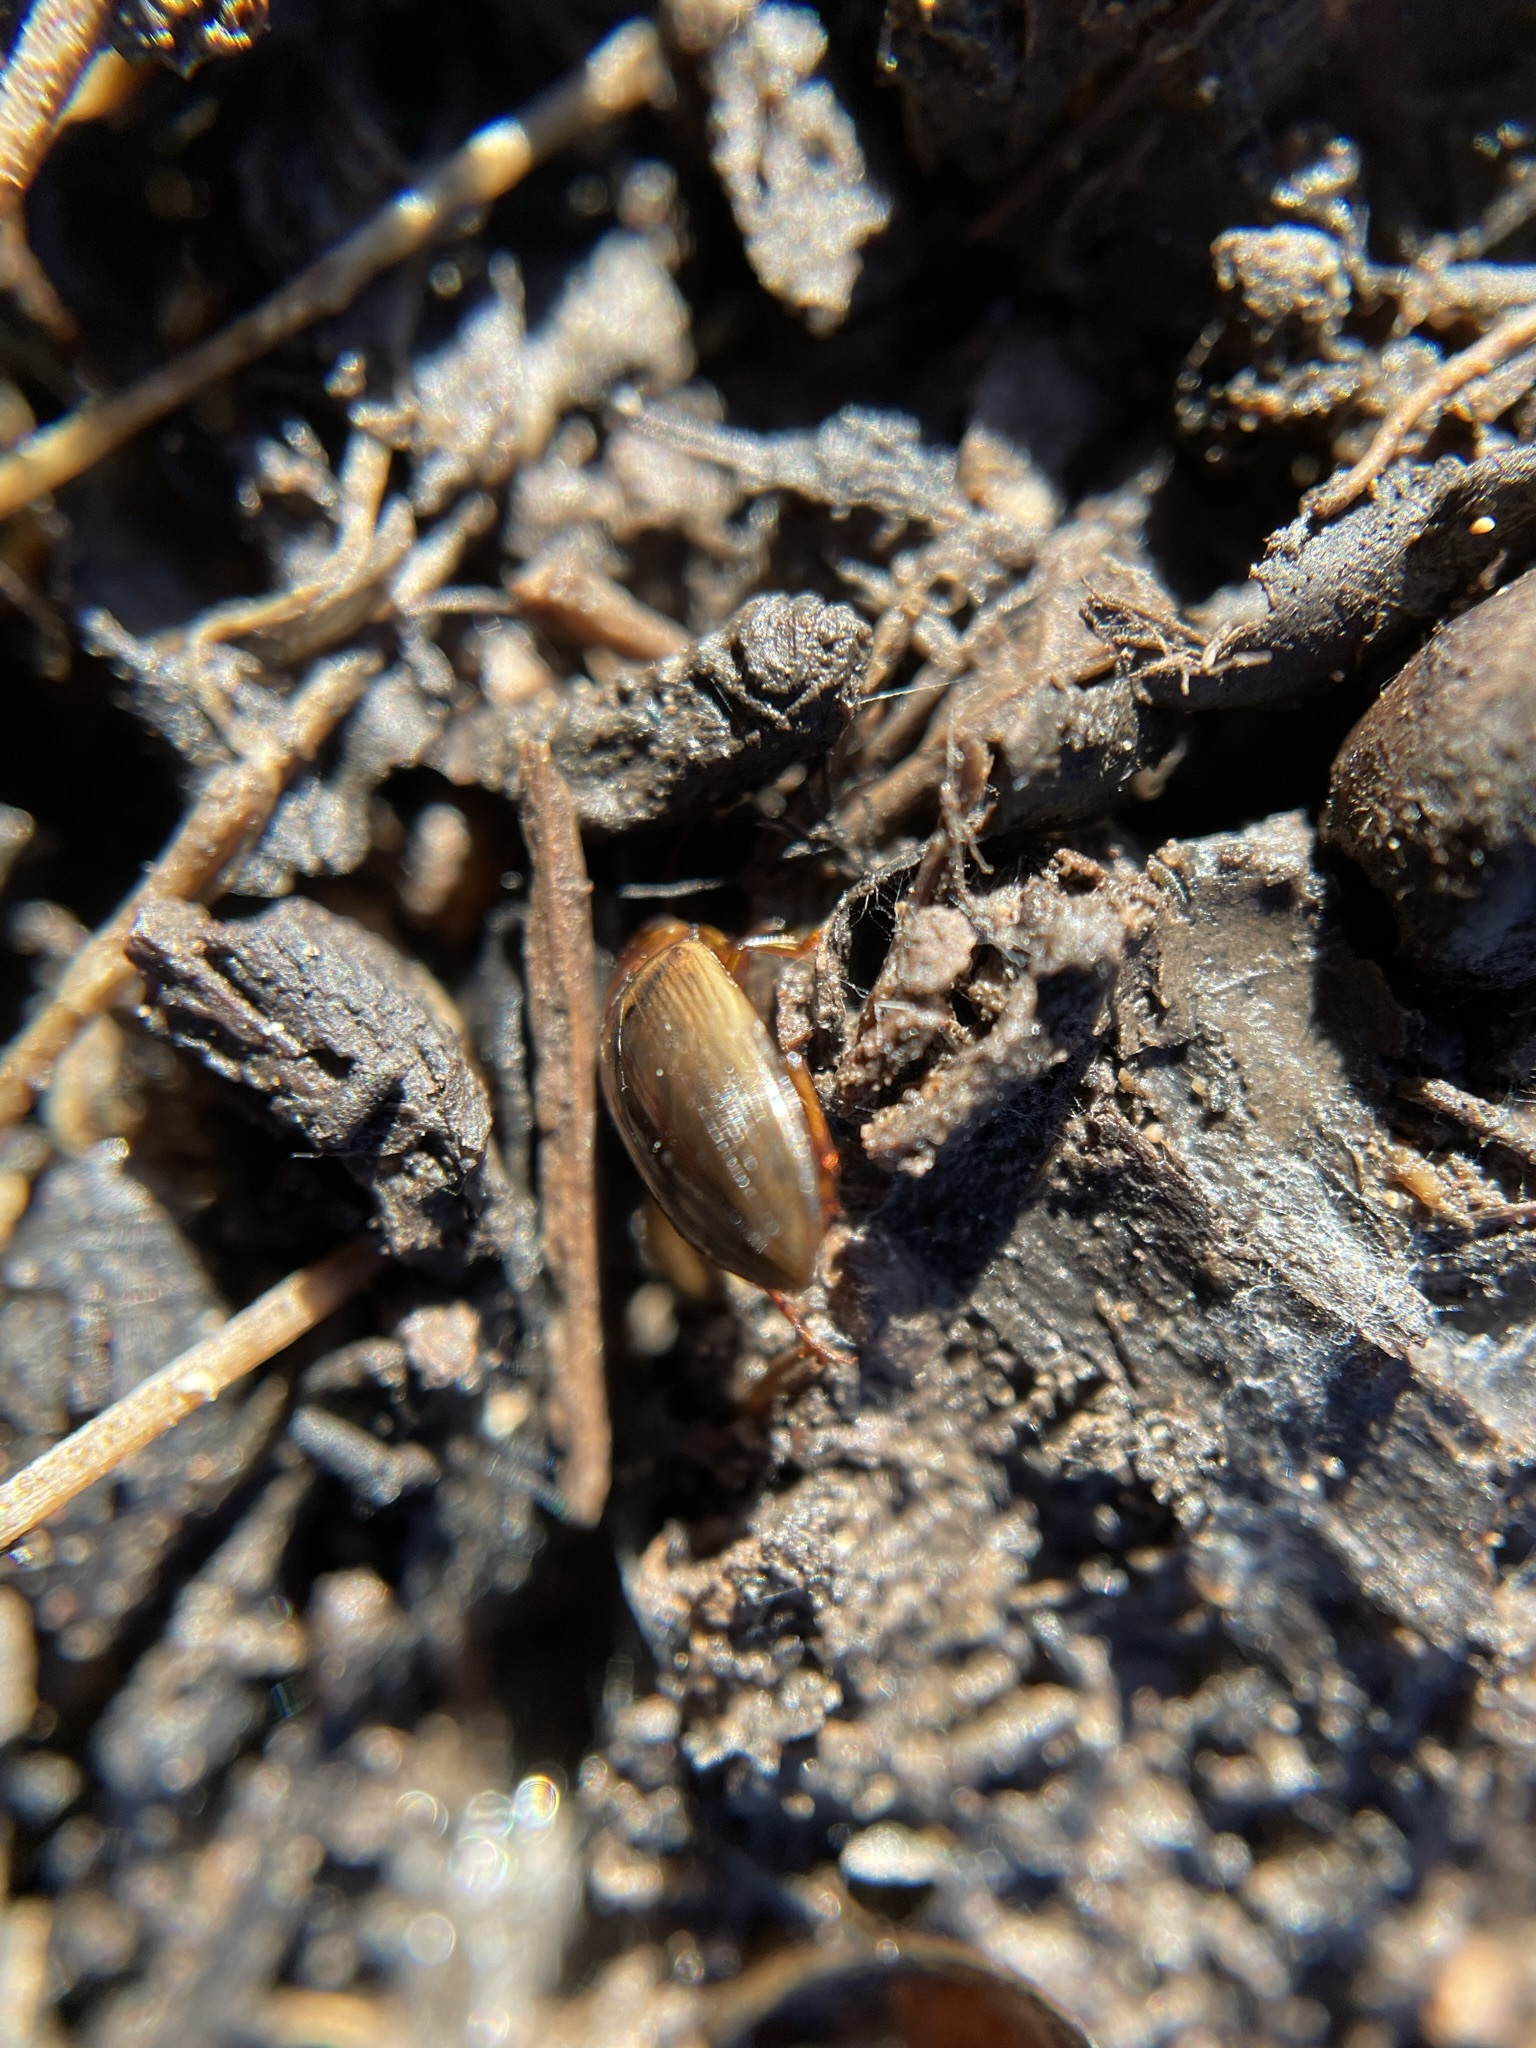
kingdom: Animalia
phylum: Arthropoda
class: Insecta
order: Coleoptera
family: Dytiscidae
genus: Copelatus
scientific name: Copelatus
